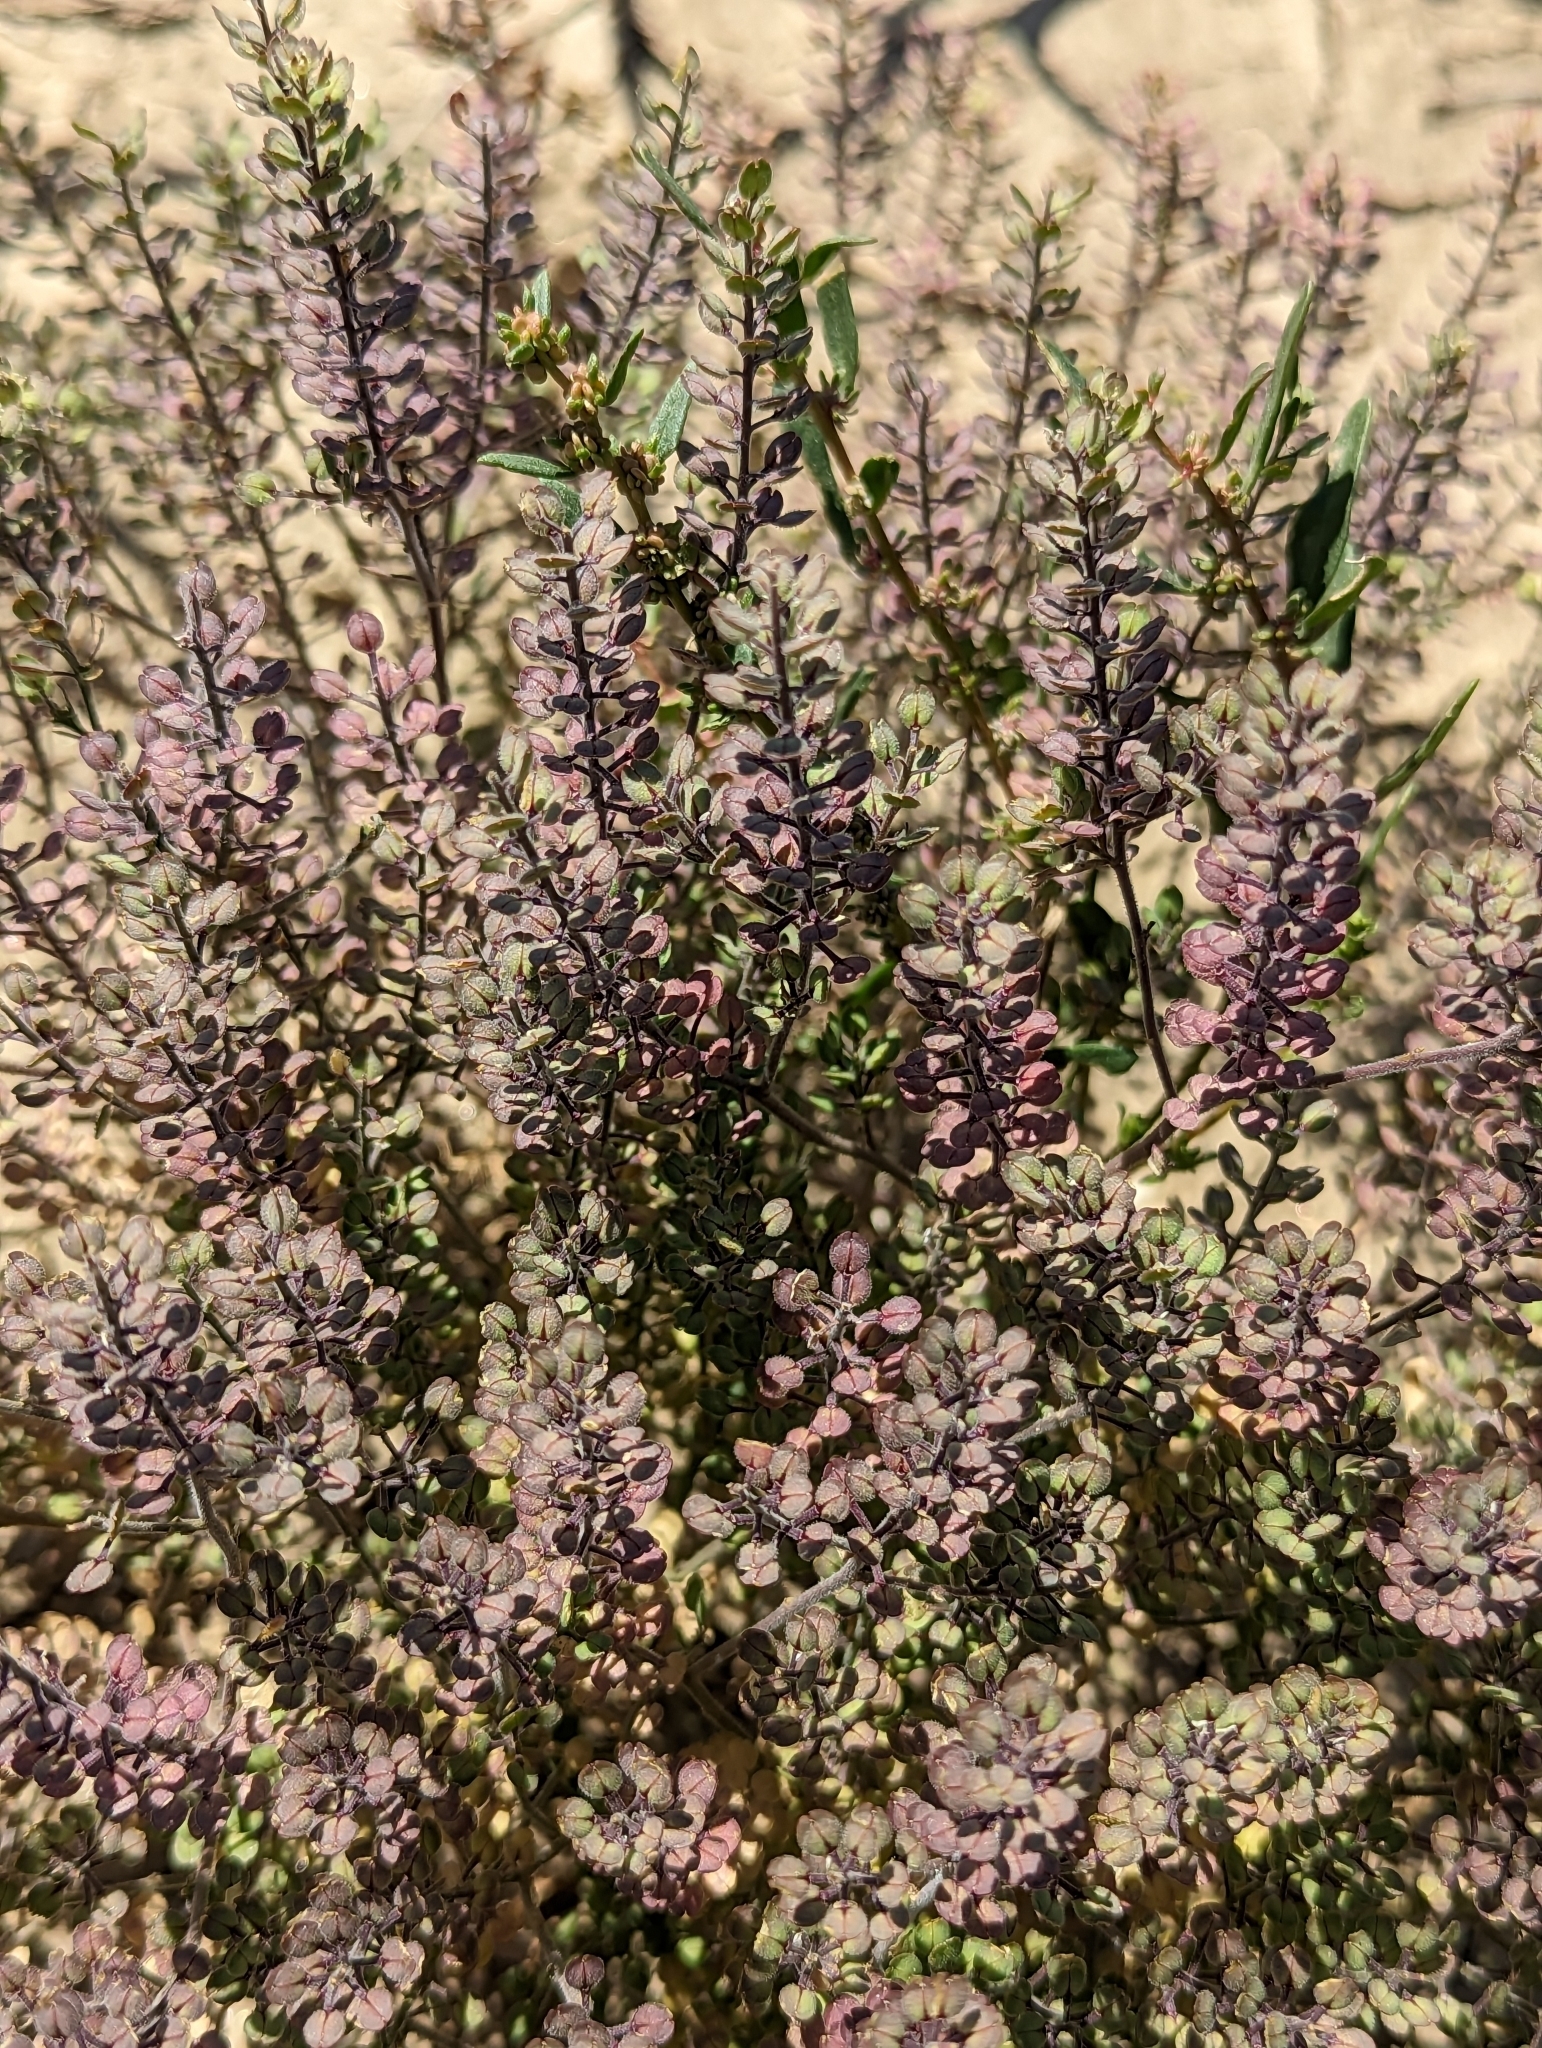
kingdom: Plantae
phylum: Tracheophyta
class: Magnoliopsida
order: Brassicales
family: Brassicaceae
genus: Lepidium
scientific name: Lepidium lasiocarpum
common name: Hairy-pod pepperwort
